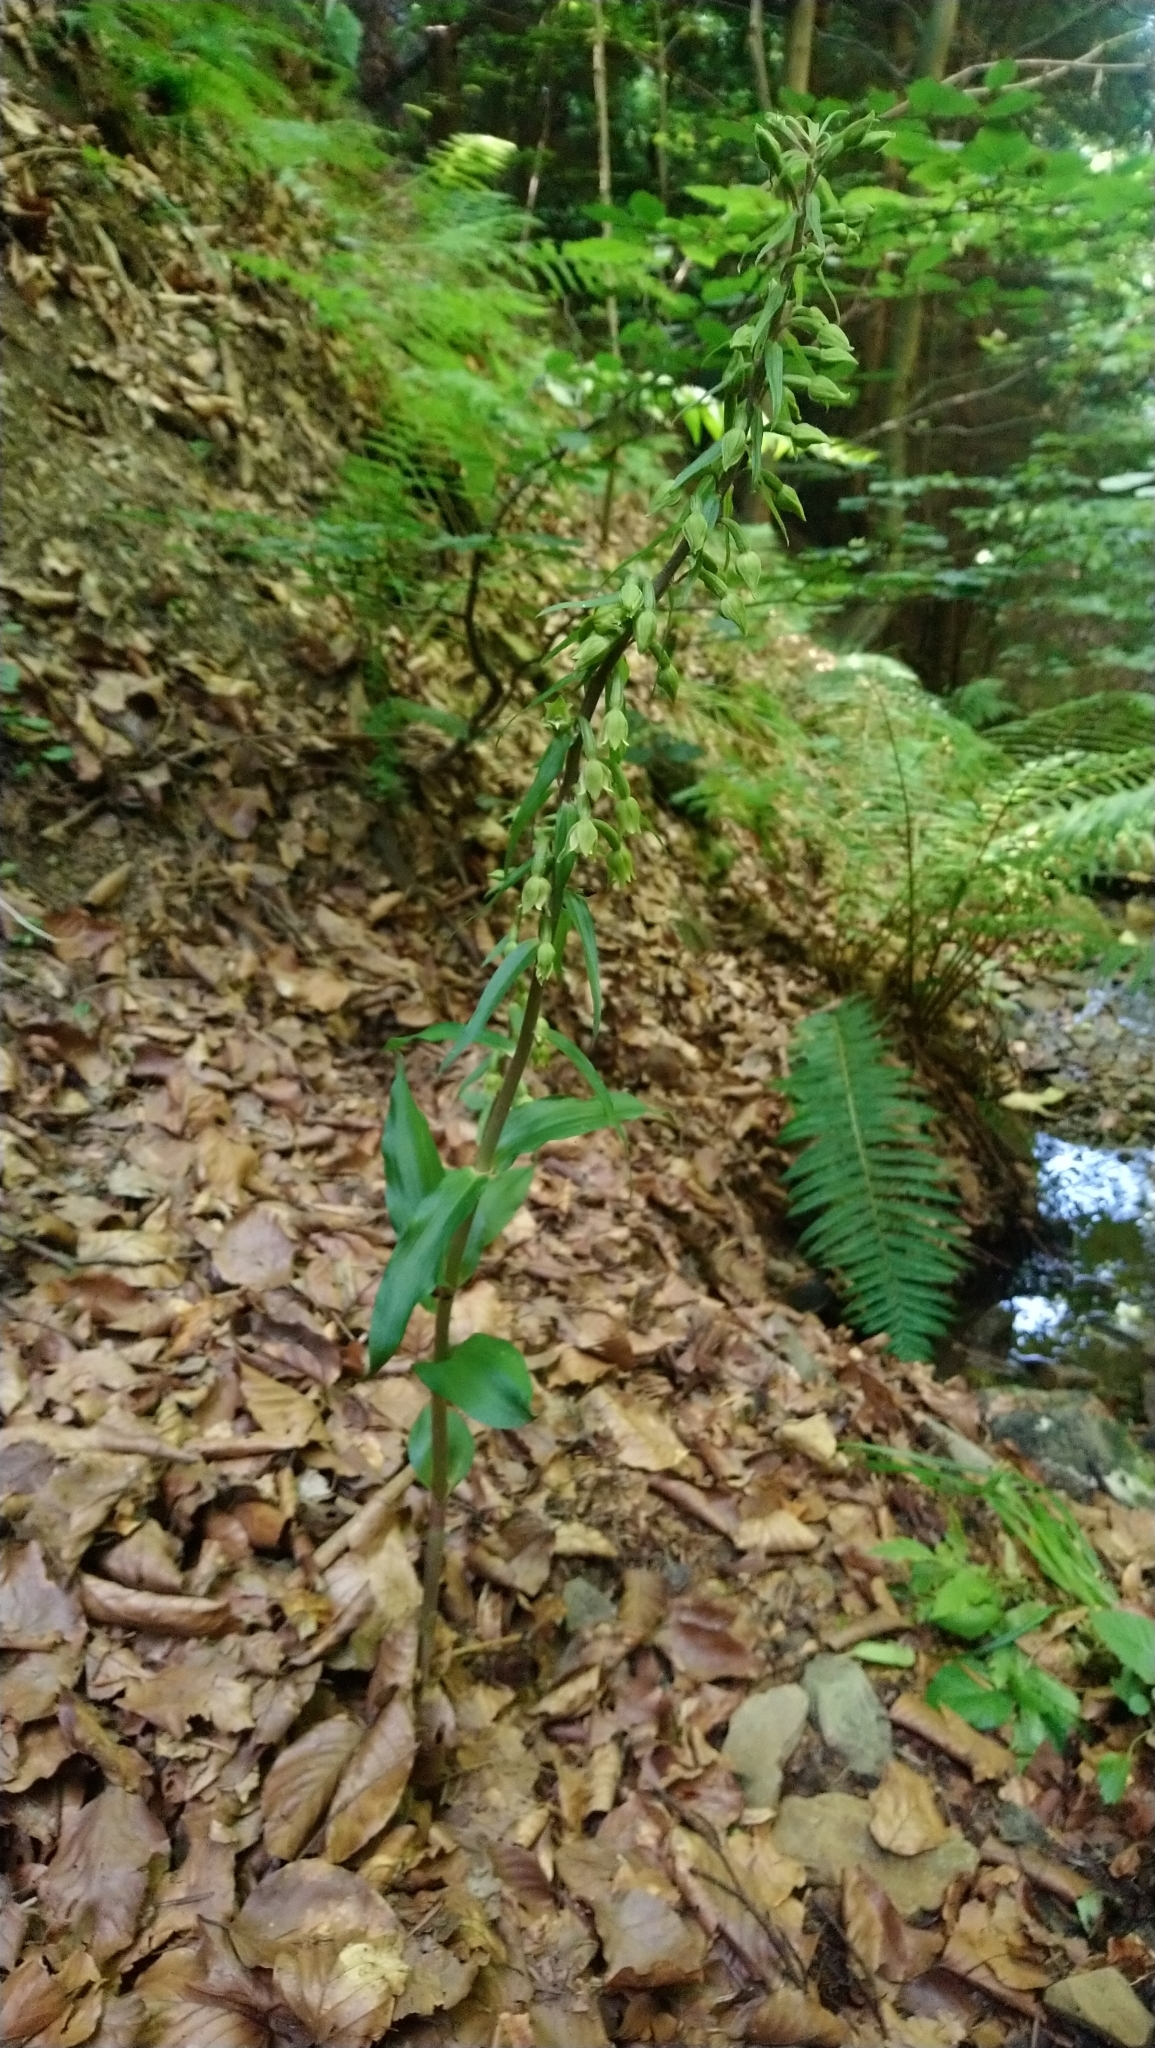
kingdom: Plantae
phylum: Tracheophyta
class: Liliopsida
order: Asparagales
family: Orchidaceae
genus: Epipactis
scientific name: Epipactis greuteri
